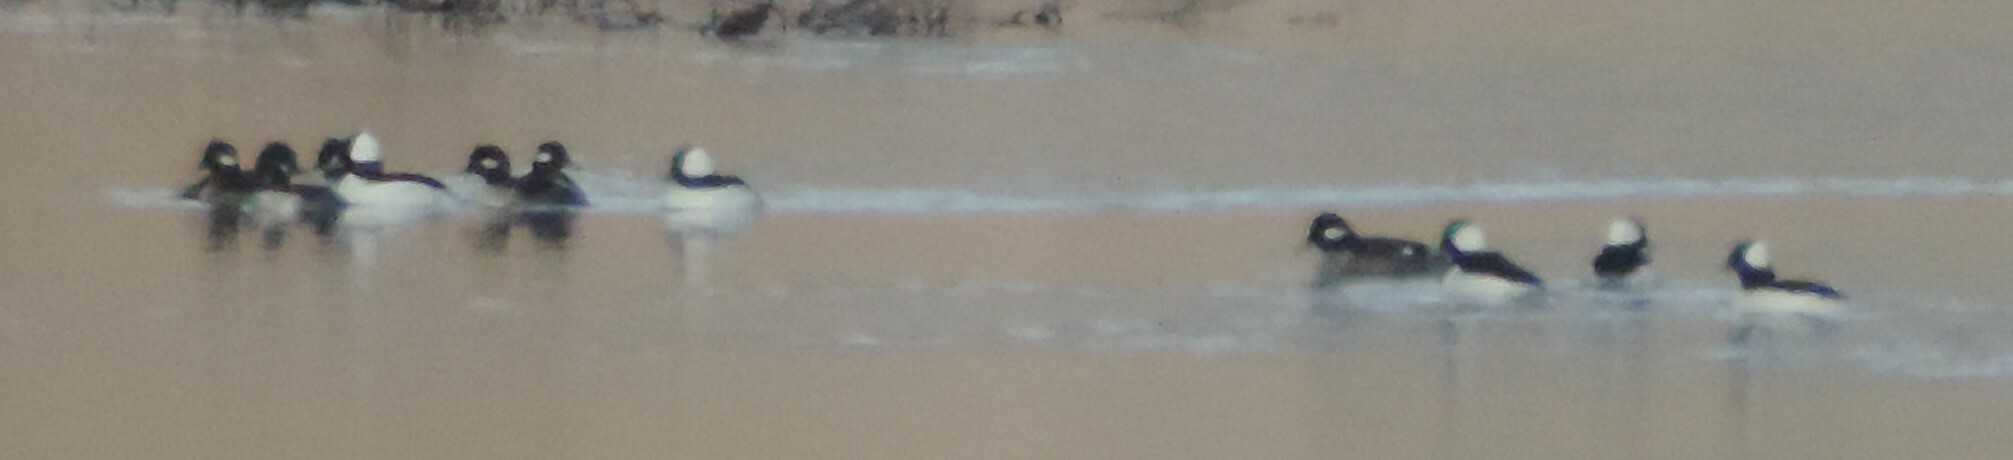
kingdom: Animalia
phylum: Chordata
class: Aves
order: Anseriformes
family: Anatidae
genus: Bucephala
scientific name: Bucephala albeola
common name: Bufflehead
